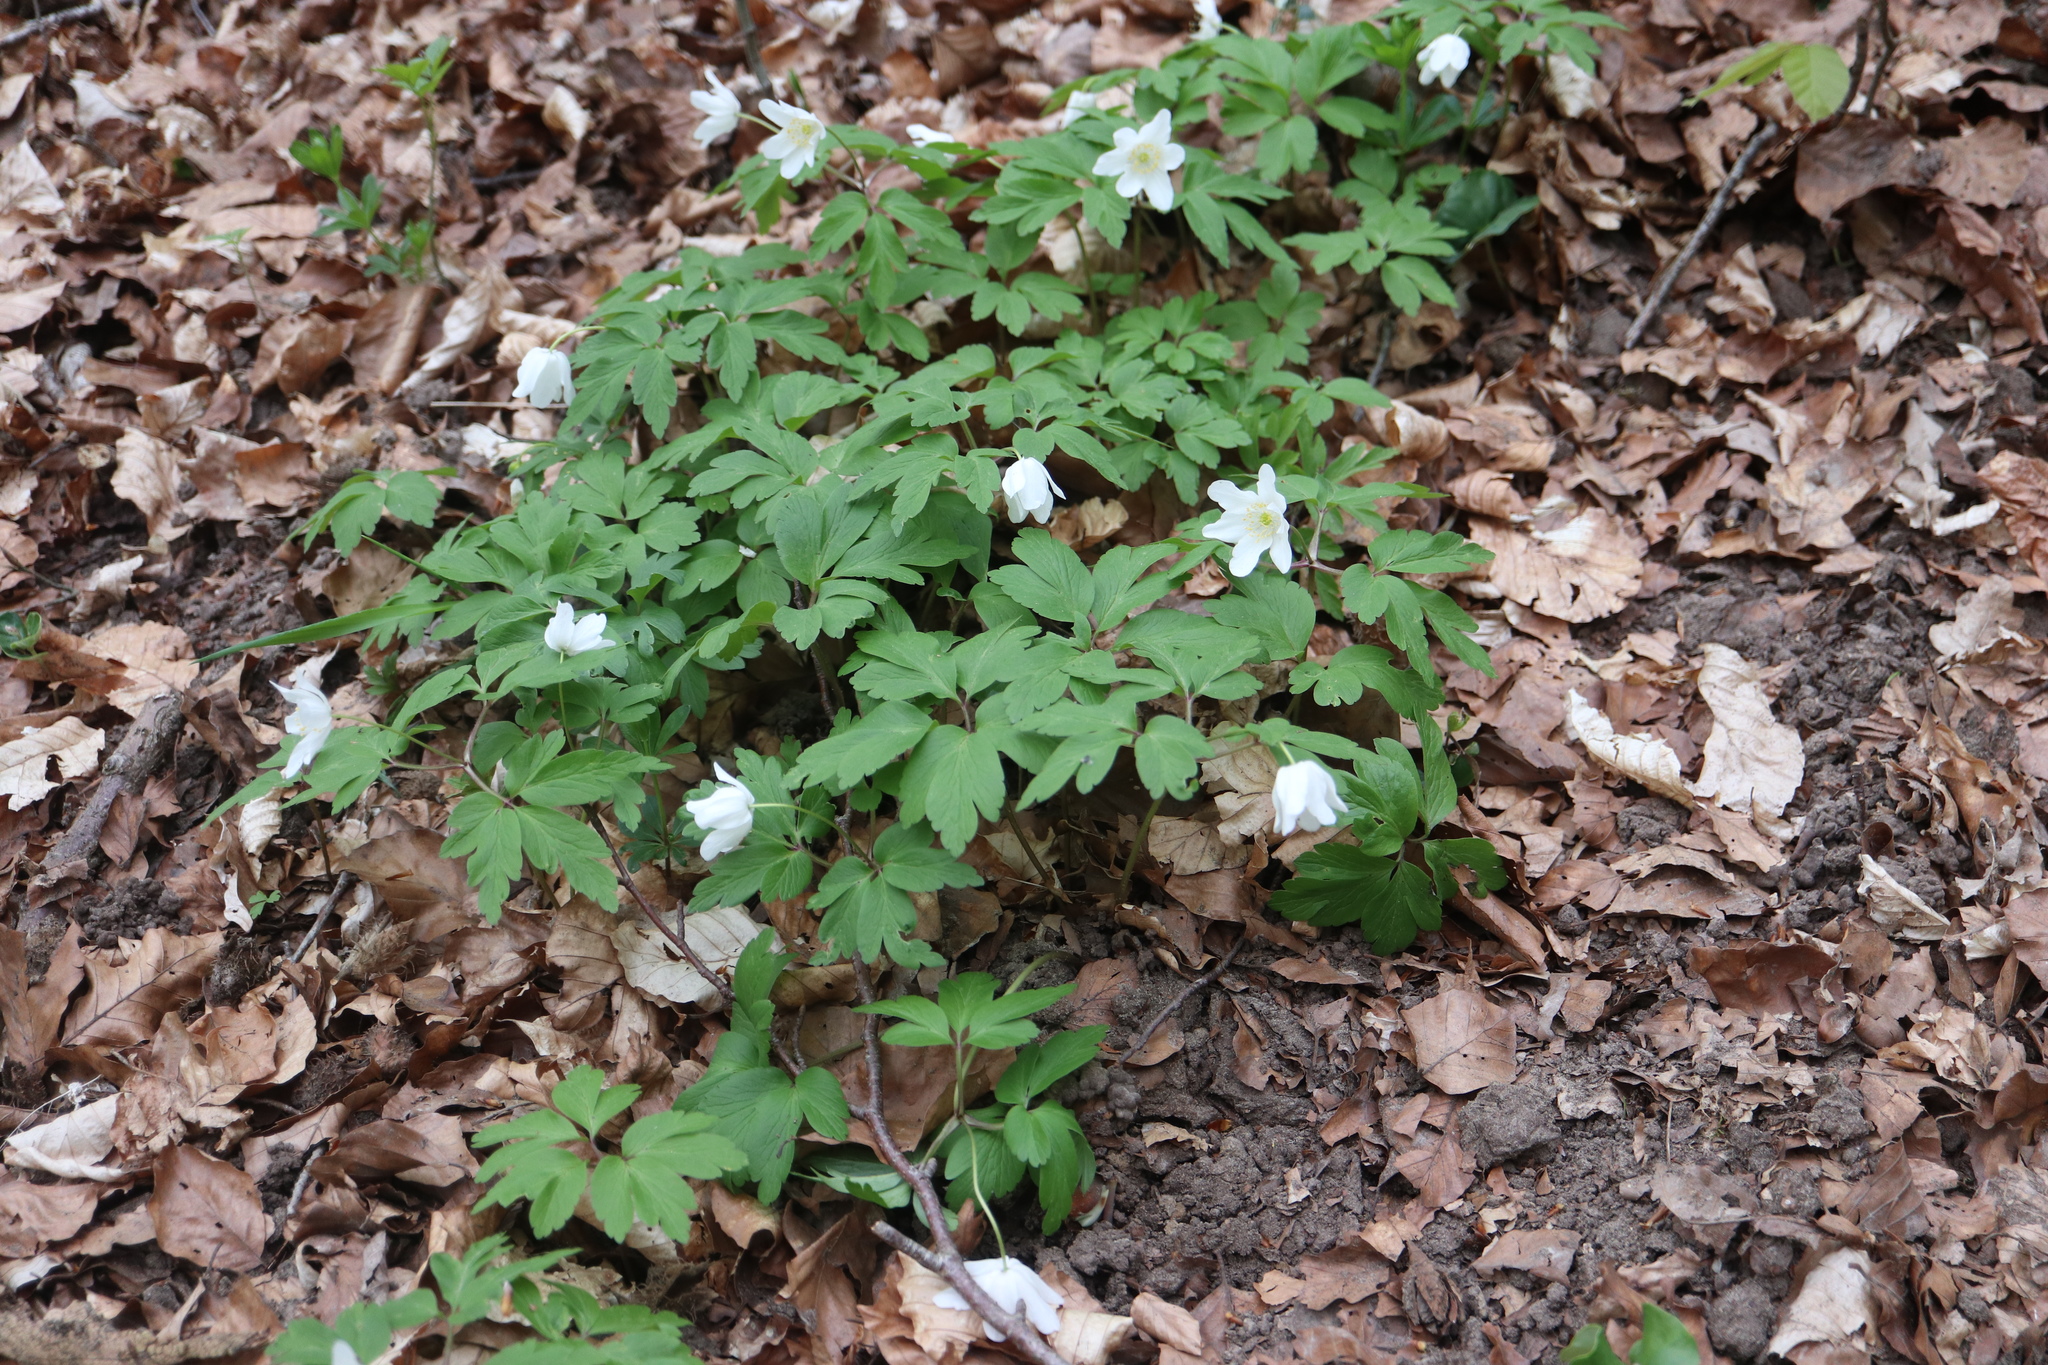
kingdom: Plantae
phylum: Tracheophyta
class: Magnoliopsida
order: Ranunculales
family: Ranunculaceae
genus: Anemone
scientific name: Anemone nemorosa
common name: Wood anemone
